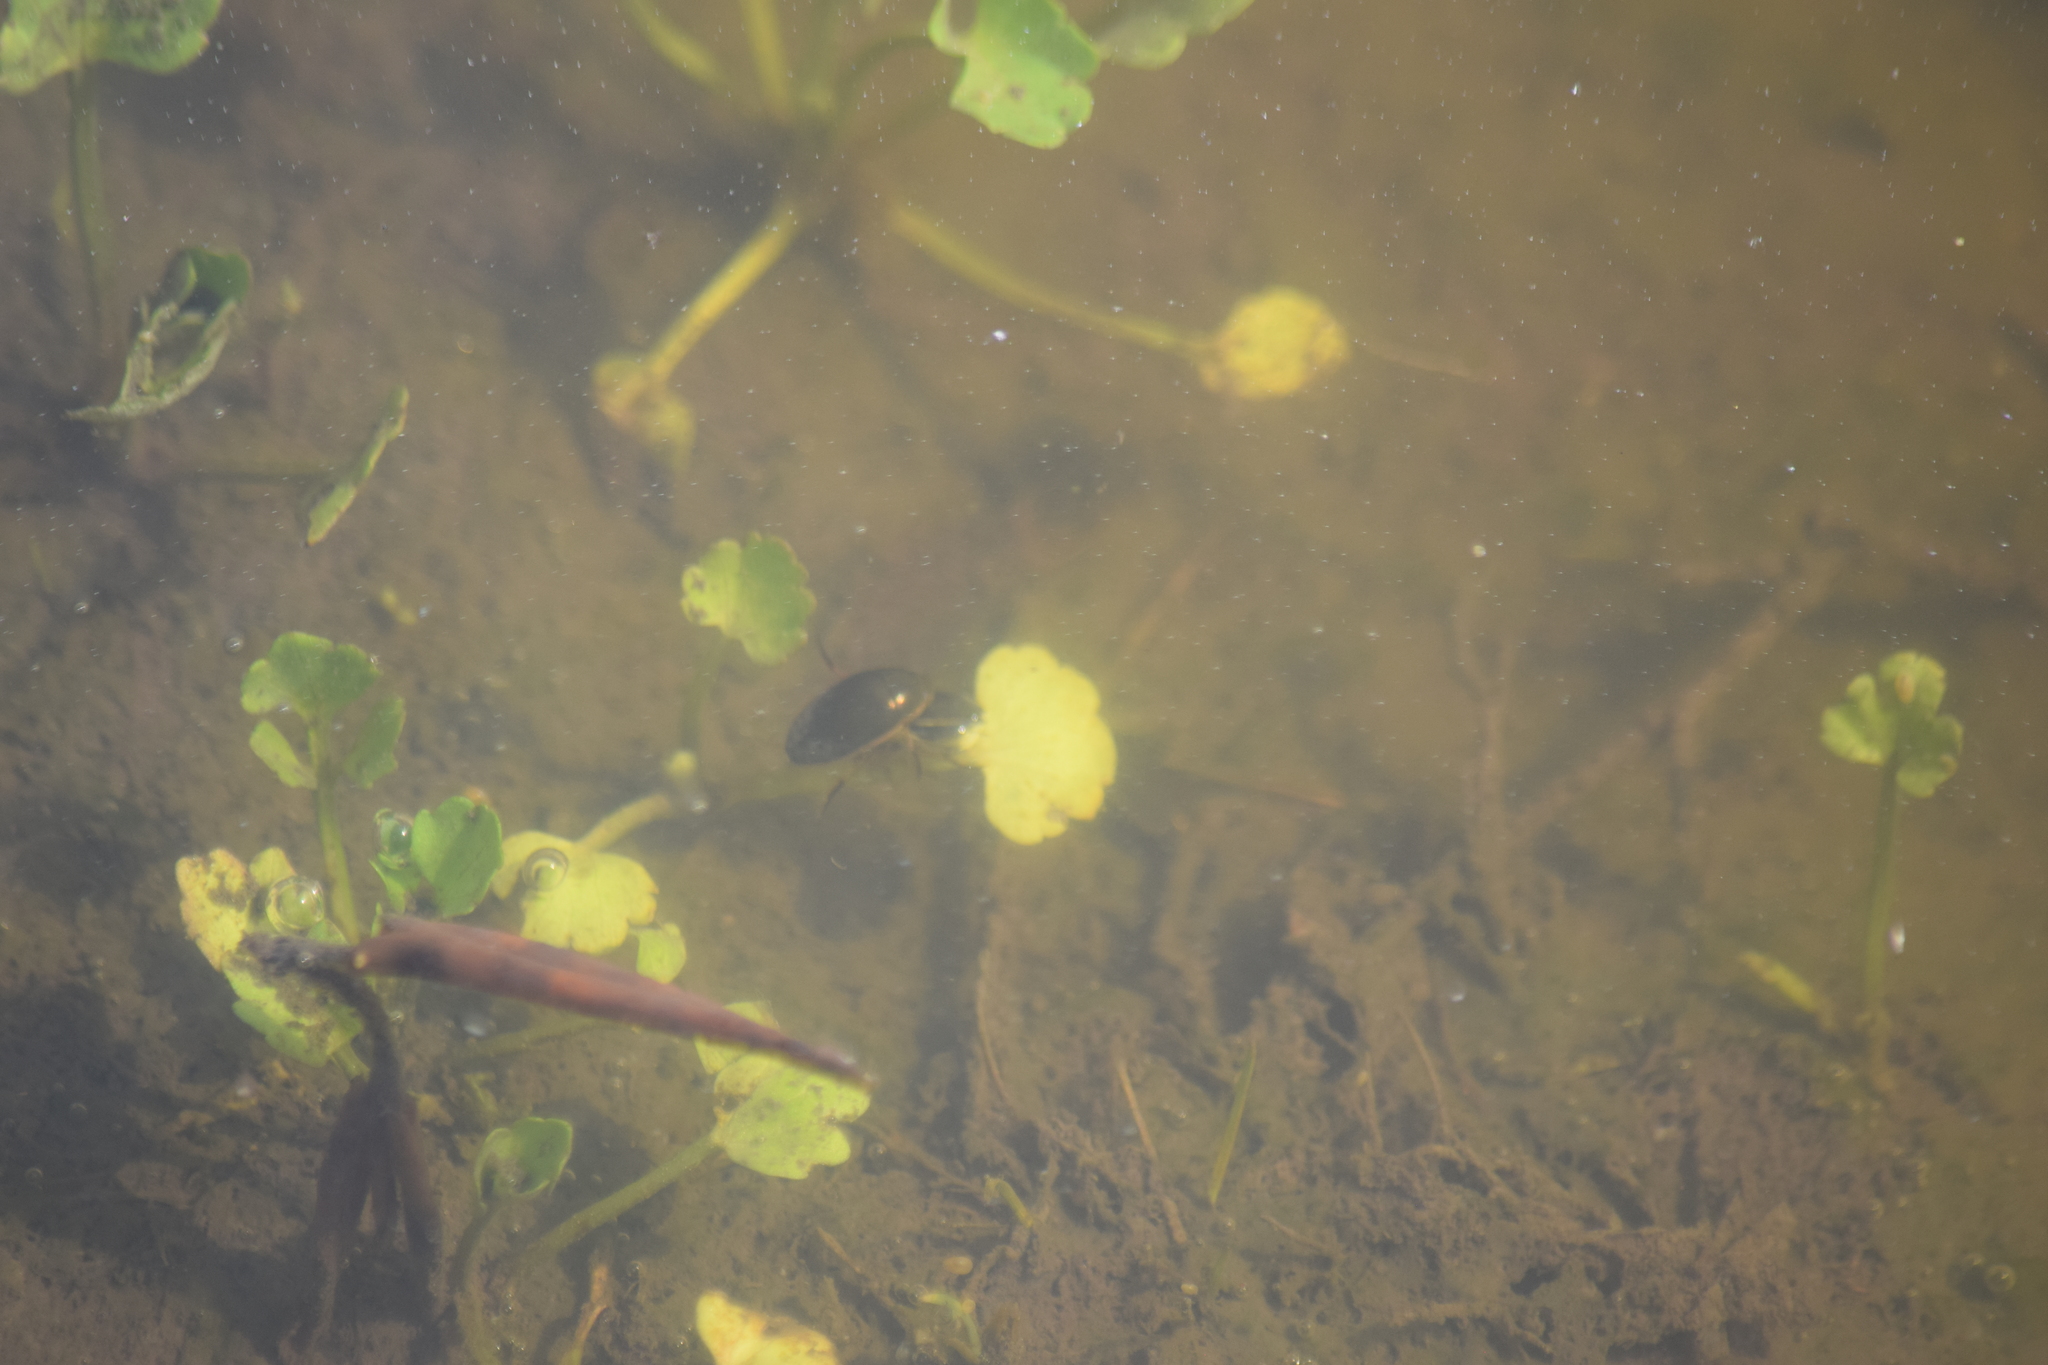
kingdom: Animalia
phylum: Arthropoda
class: Insecta
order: Coleoptera
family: Hydrophilidae
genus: Tropisternus
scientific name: Tropisternus lateralis
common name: Lateral-banded water scavenger beetle
